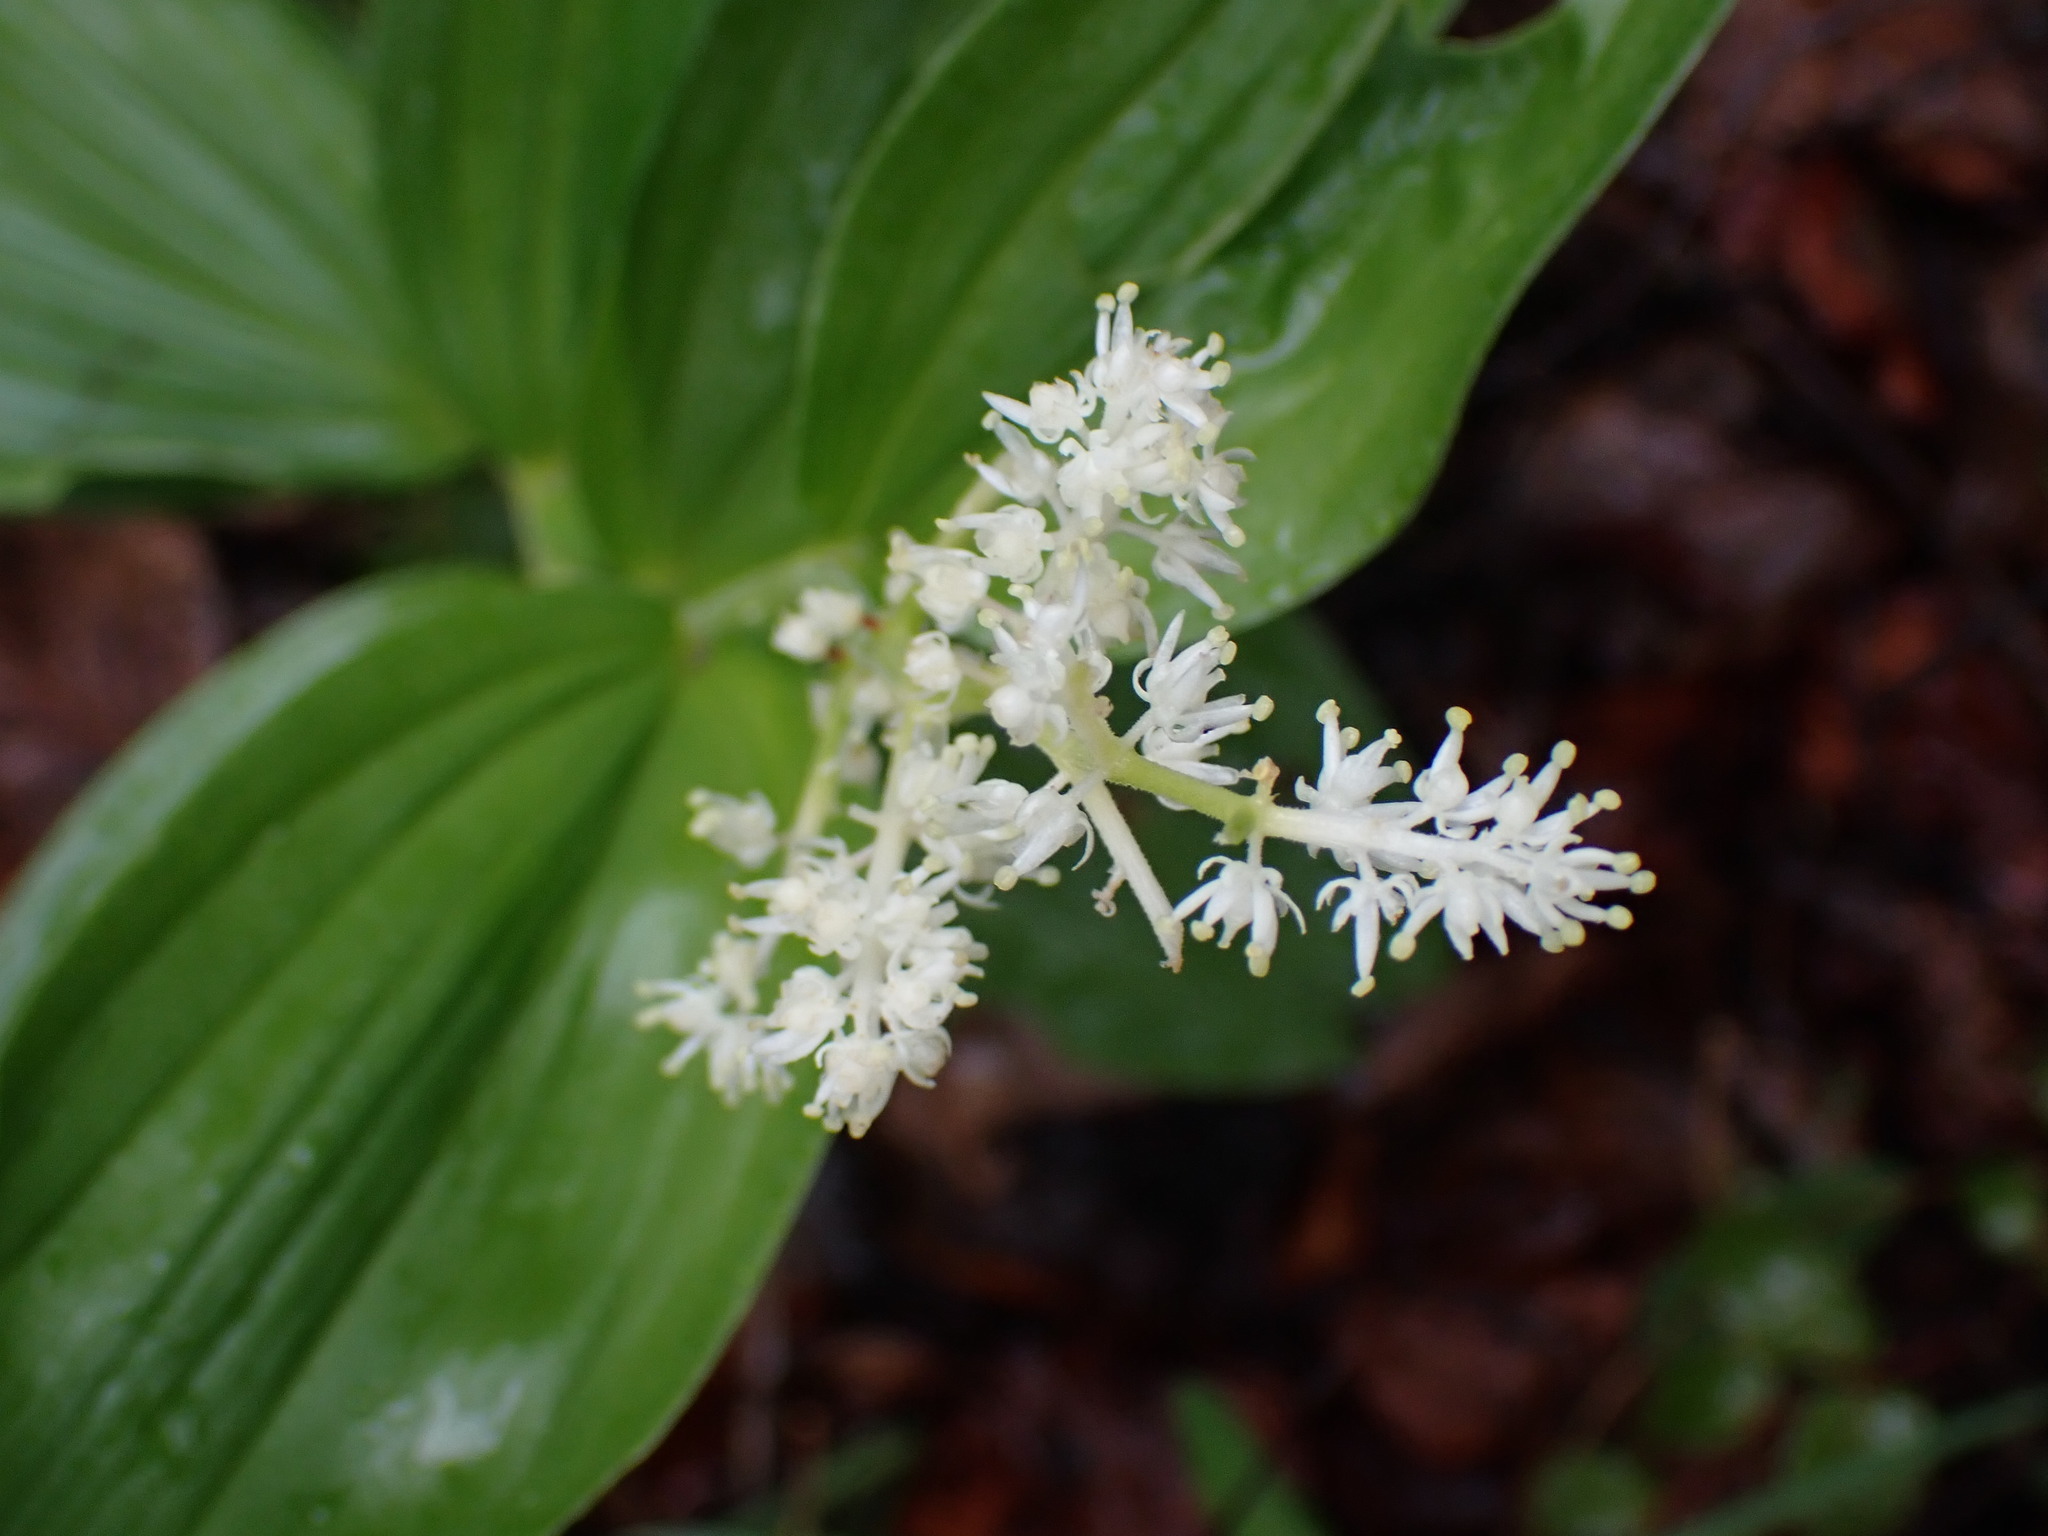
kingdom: Plantae
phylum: Tracheophyta
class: Liliopsida
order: Asparagales
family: Asparagaceae
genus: Maianthemum
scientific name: Maianthemum racemosum
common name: False spikenard
